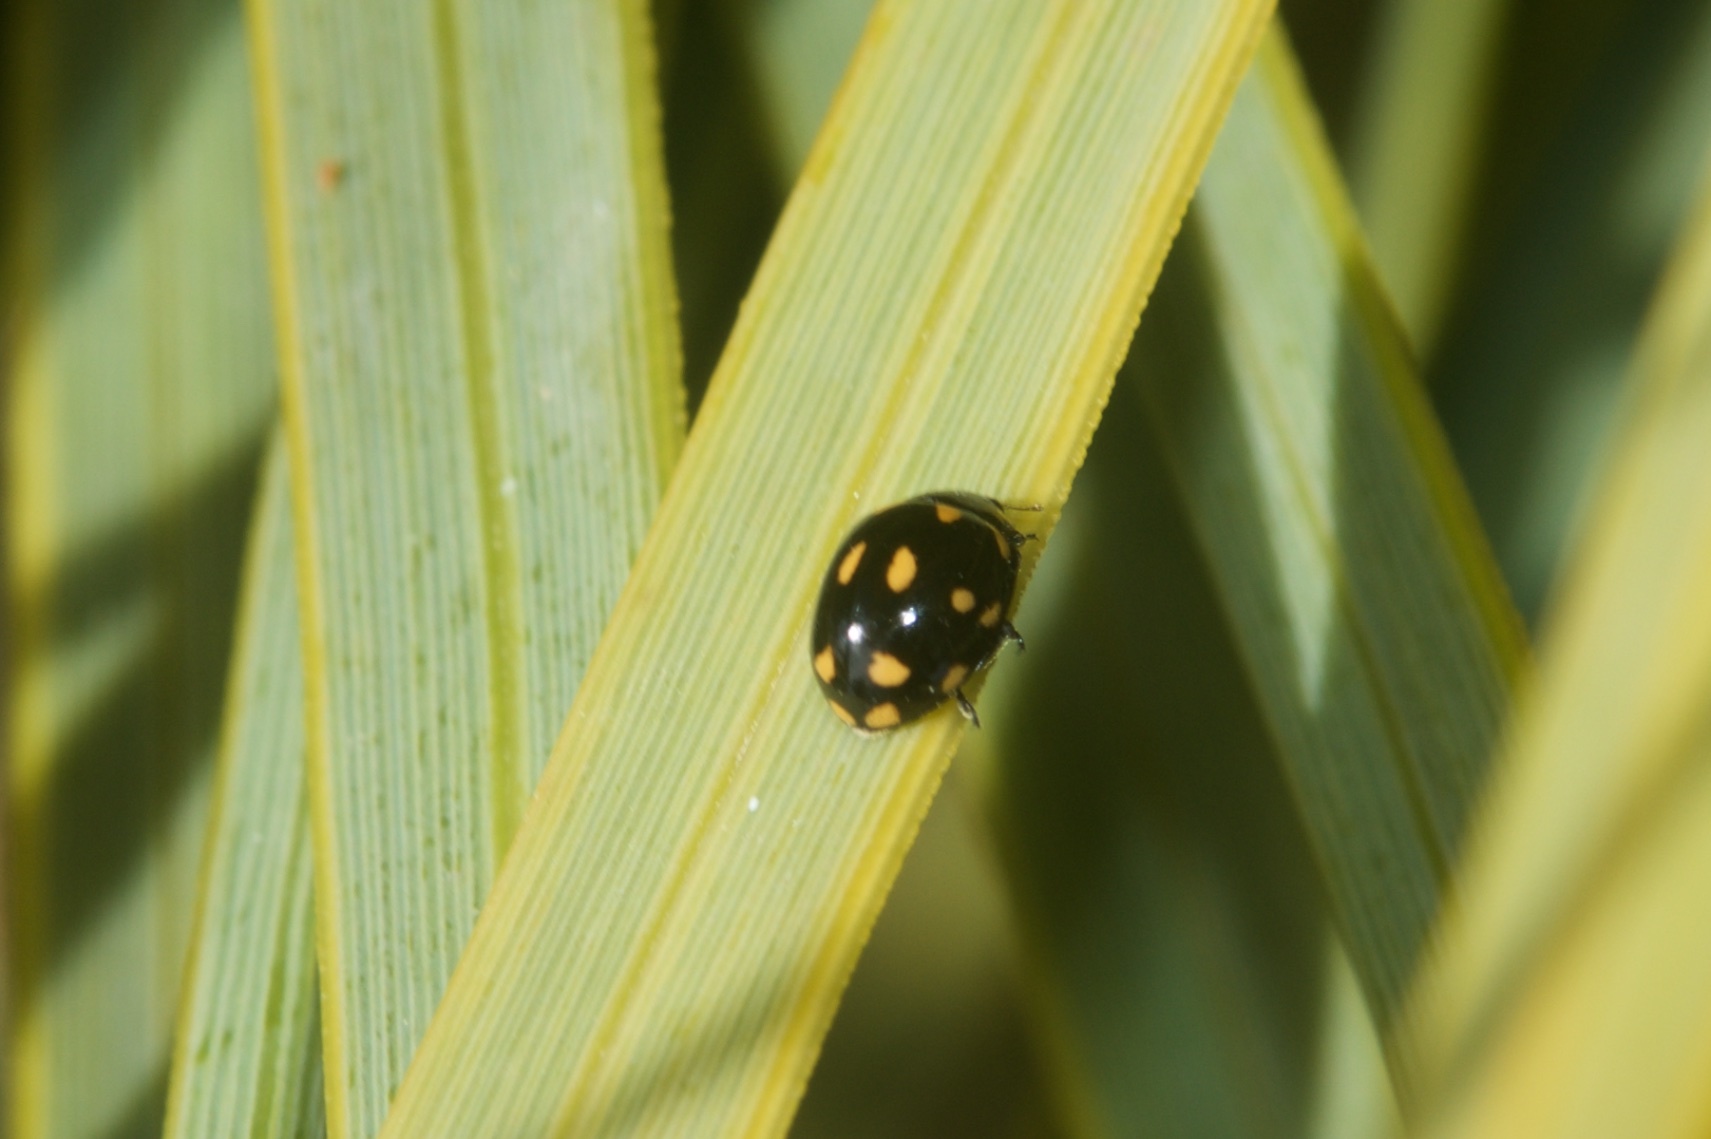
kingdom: Animalia
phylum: Arthropoda
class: Insecta
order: Coleoptera
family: Coccinellidae
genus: Coccinella
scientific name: Coccinella leonina
